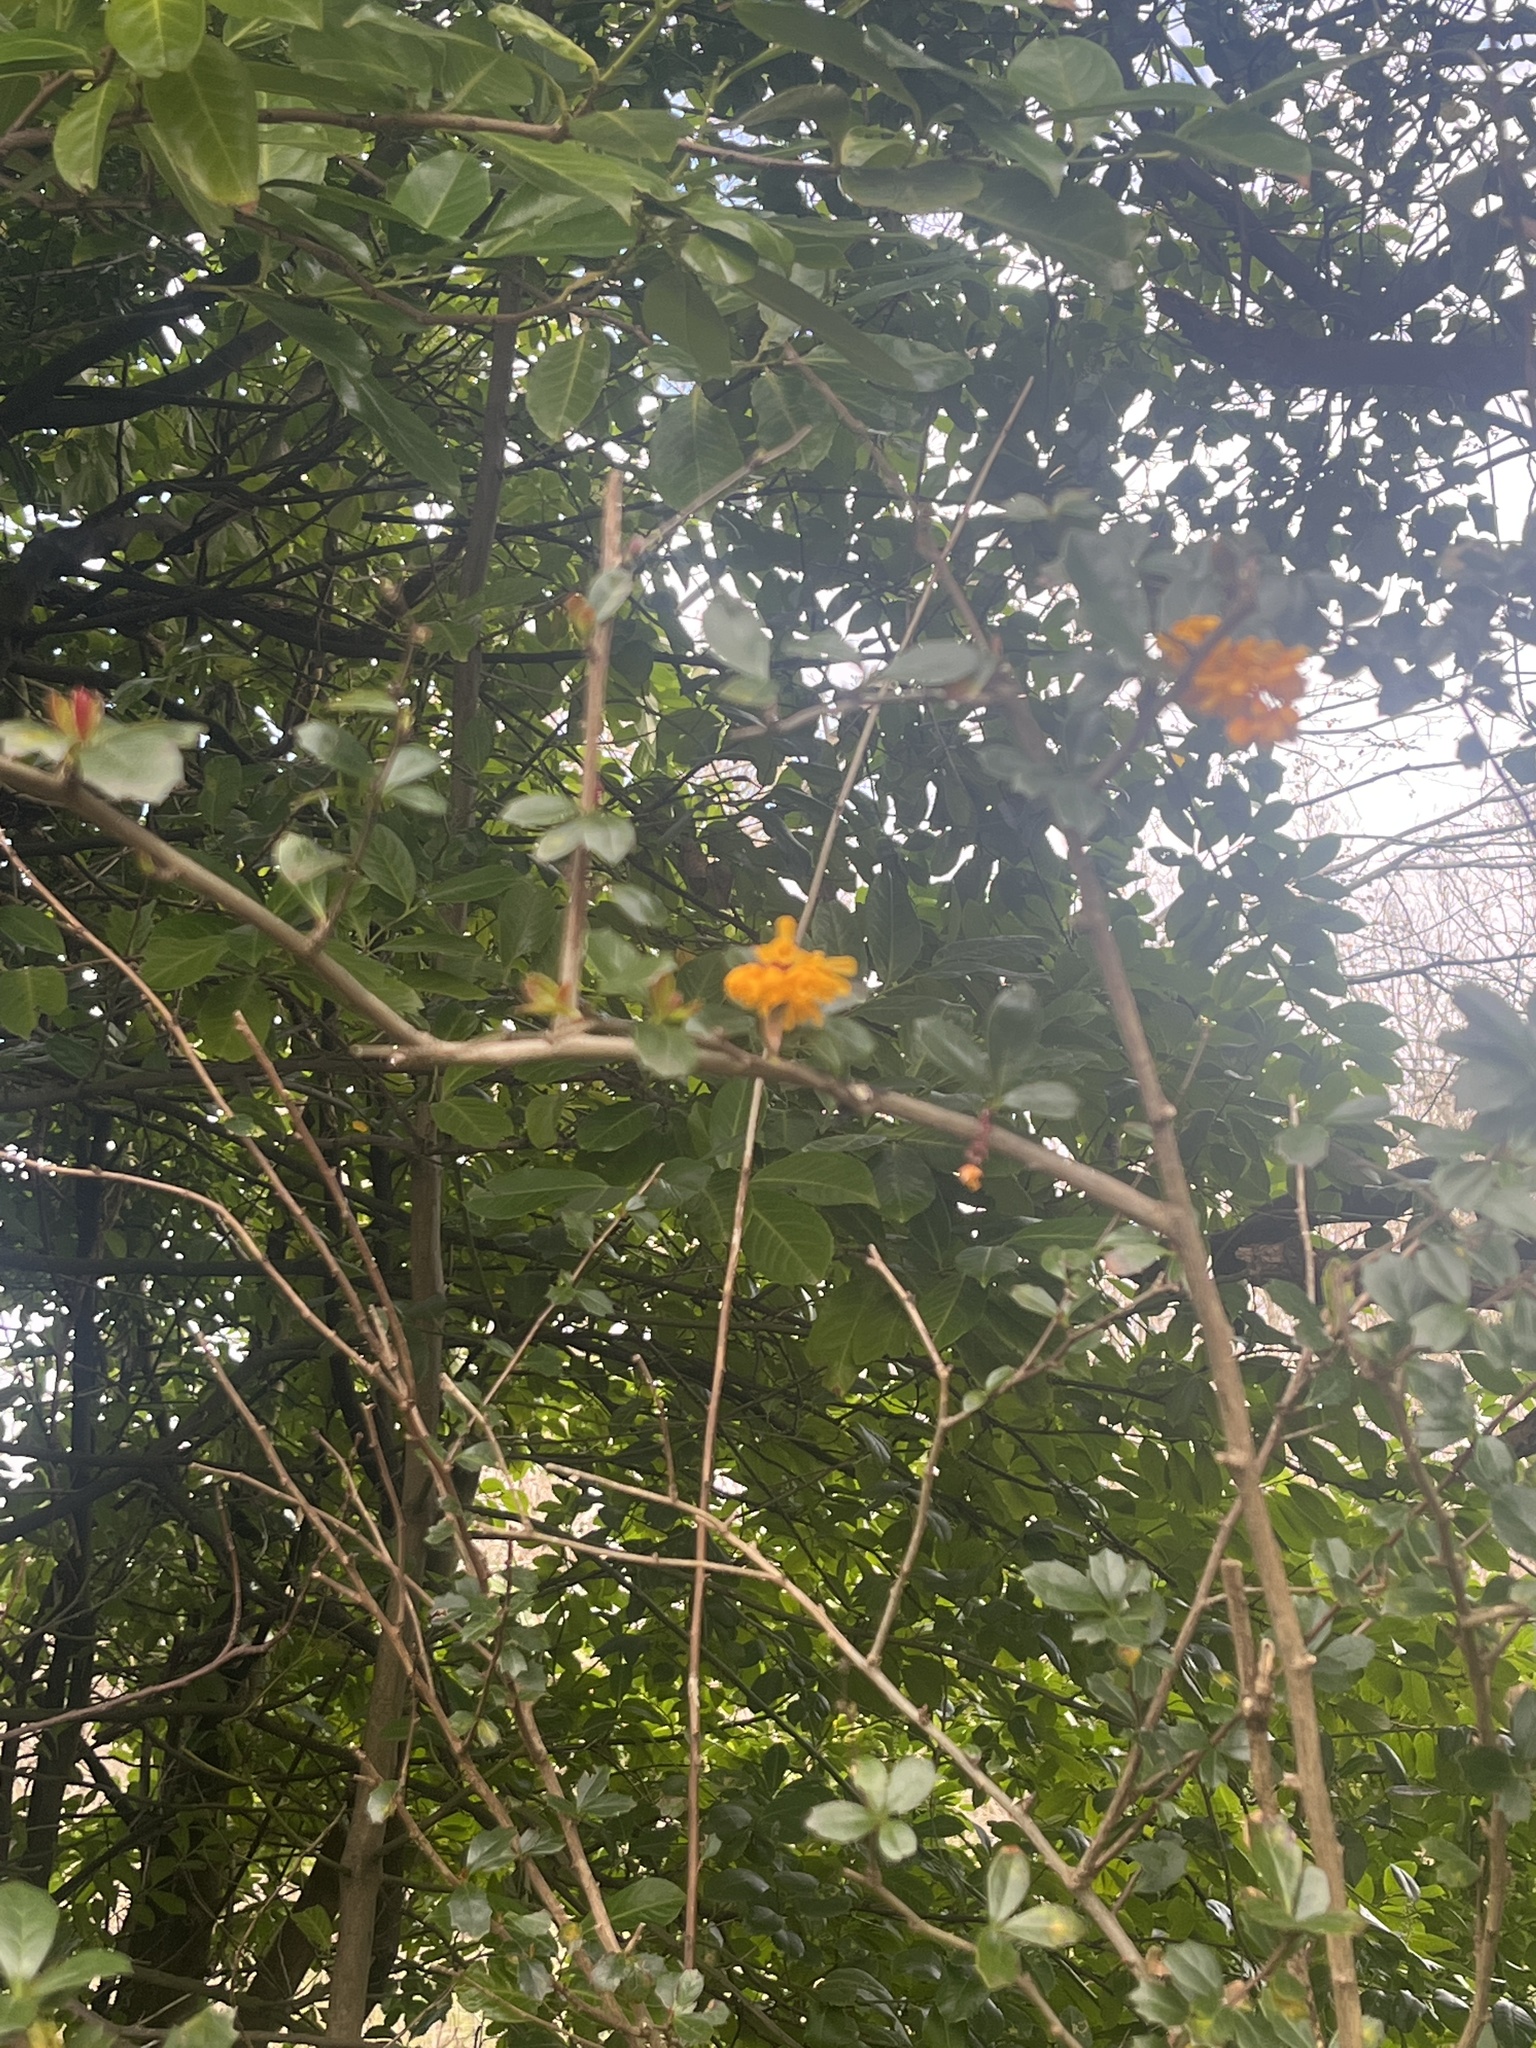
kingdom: Plantae
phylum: Tracheophyta
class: Magnoliopsida
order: Ranunculales
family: Berberidaceae
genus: Berberis
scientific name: Berberis darwinii
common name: Darwin's barberry
